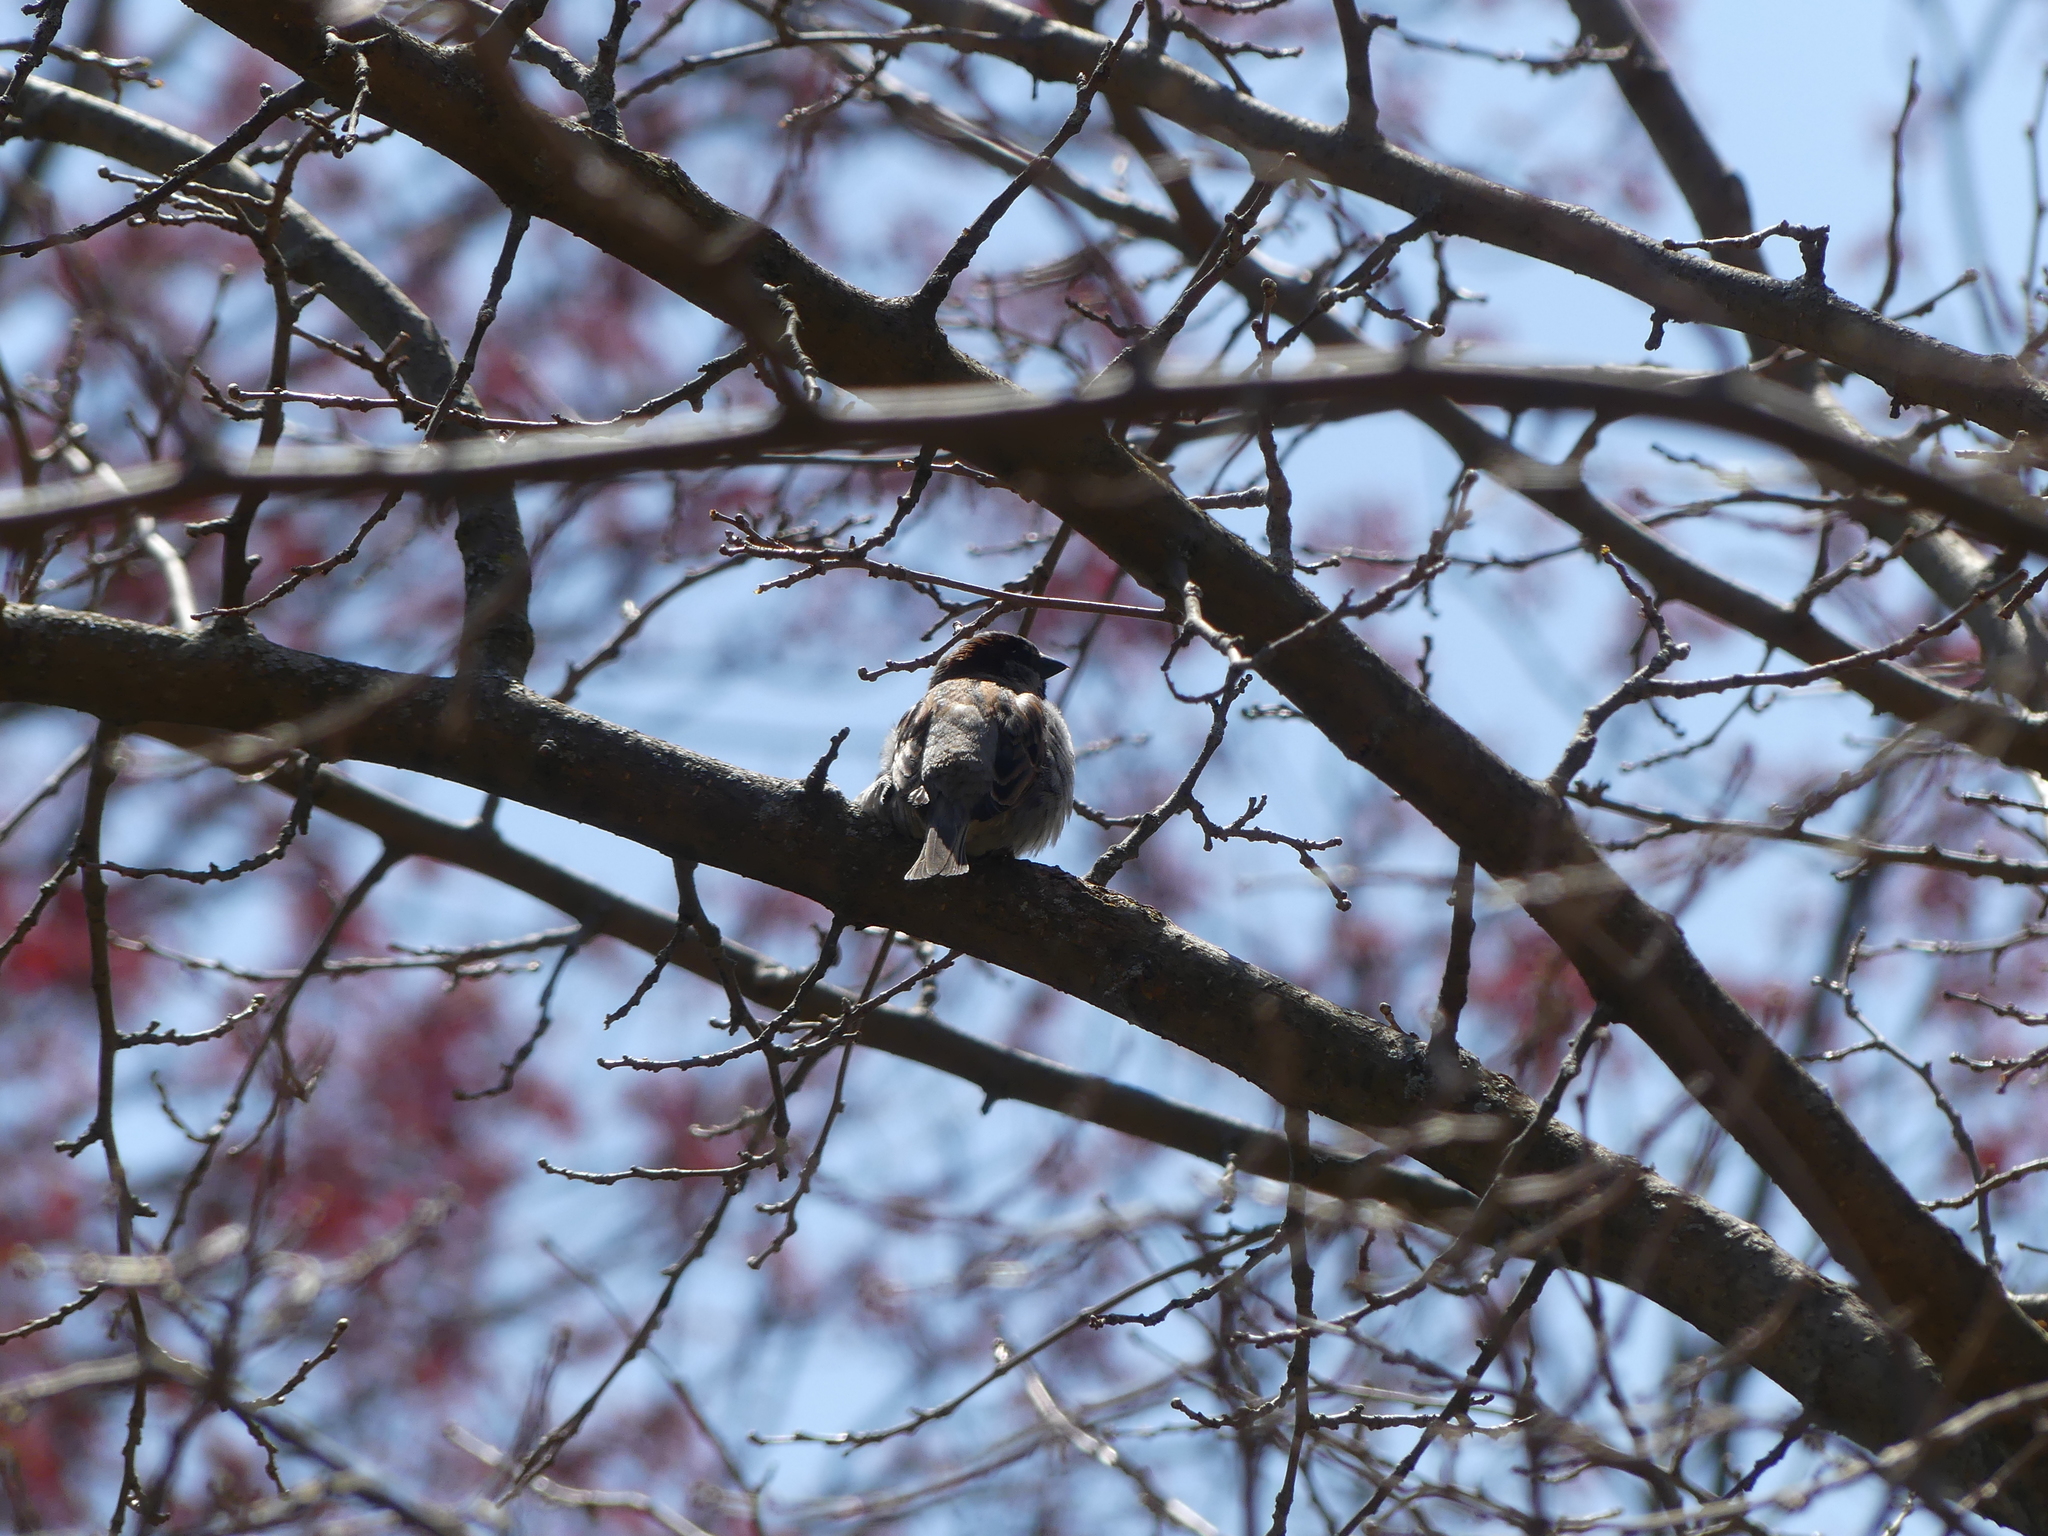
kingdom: Animalia
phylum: Chordata
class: Aves
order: Passeriformes
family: Passeridae
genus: Passer
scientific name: Passer domesticus
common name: House sparrow
